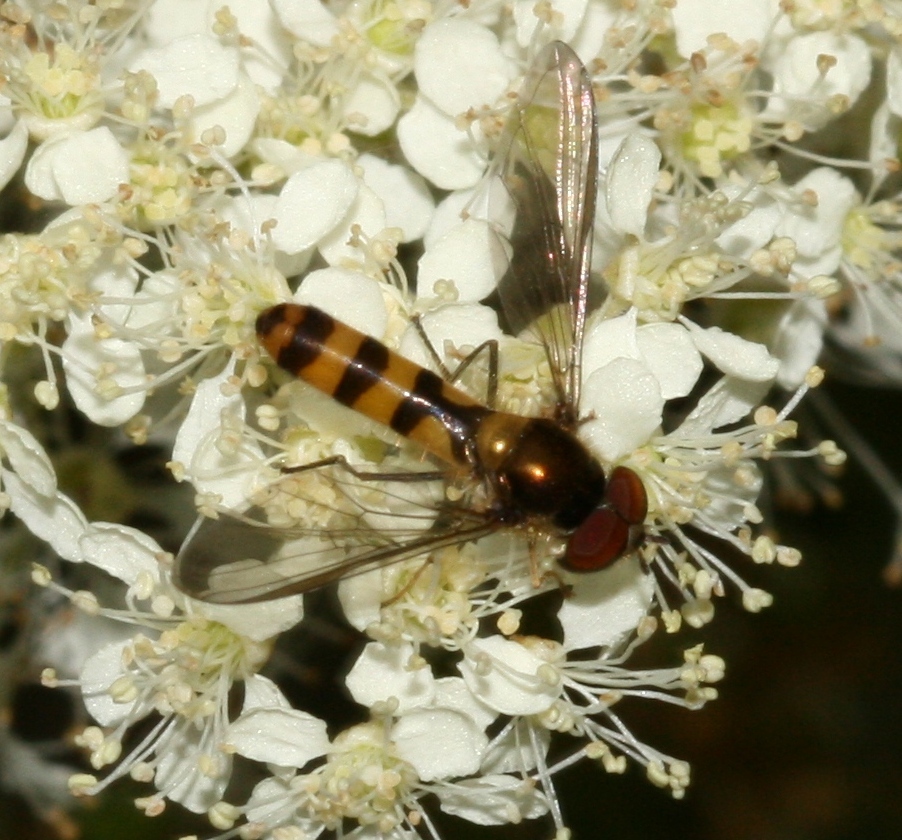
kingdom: Animalia
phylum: Arthropoda
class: Insecta
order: Diptera
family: Syrphidae
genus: Meliscaeva
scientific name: Meliscaeva cinctella
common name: American thintail fly
